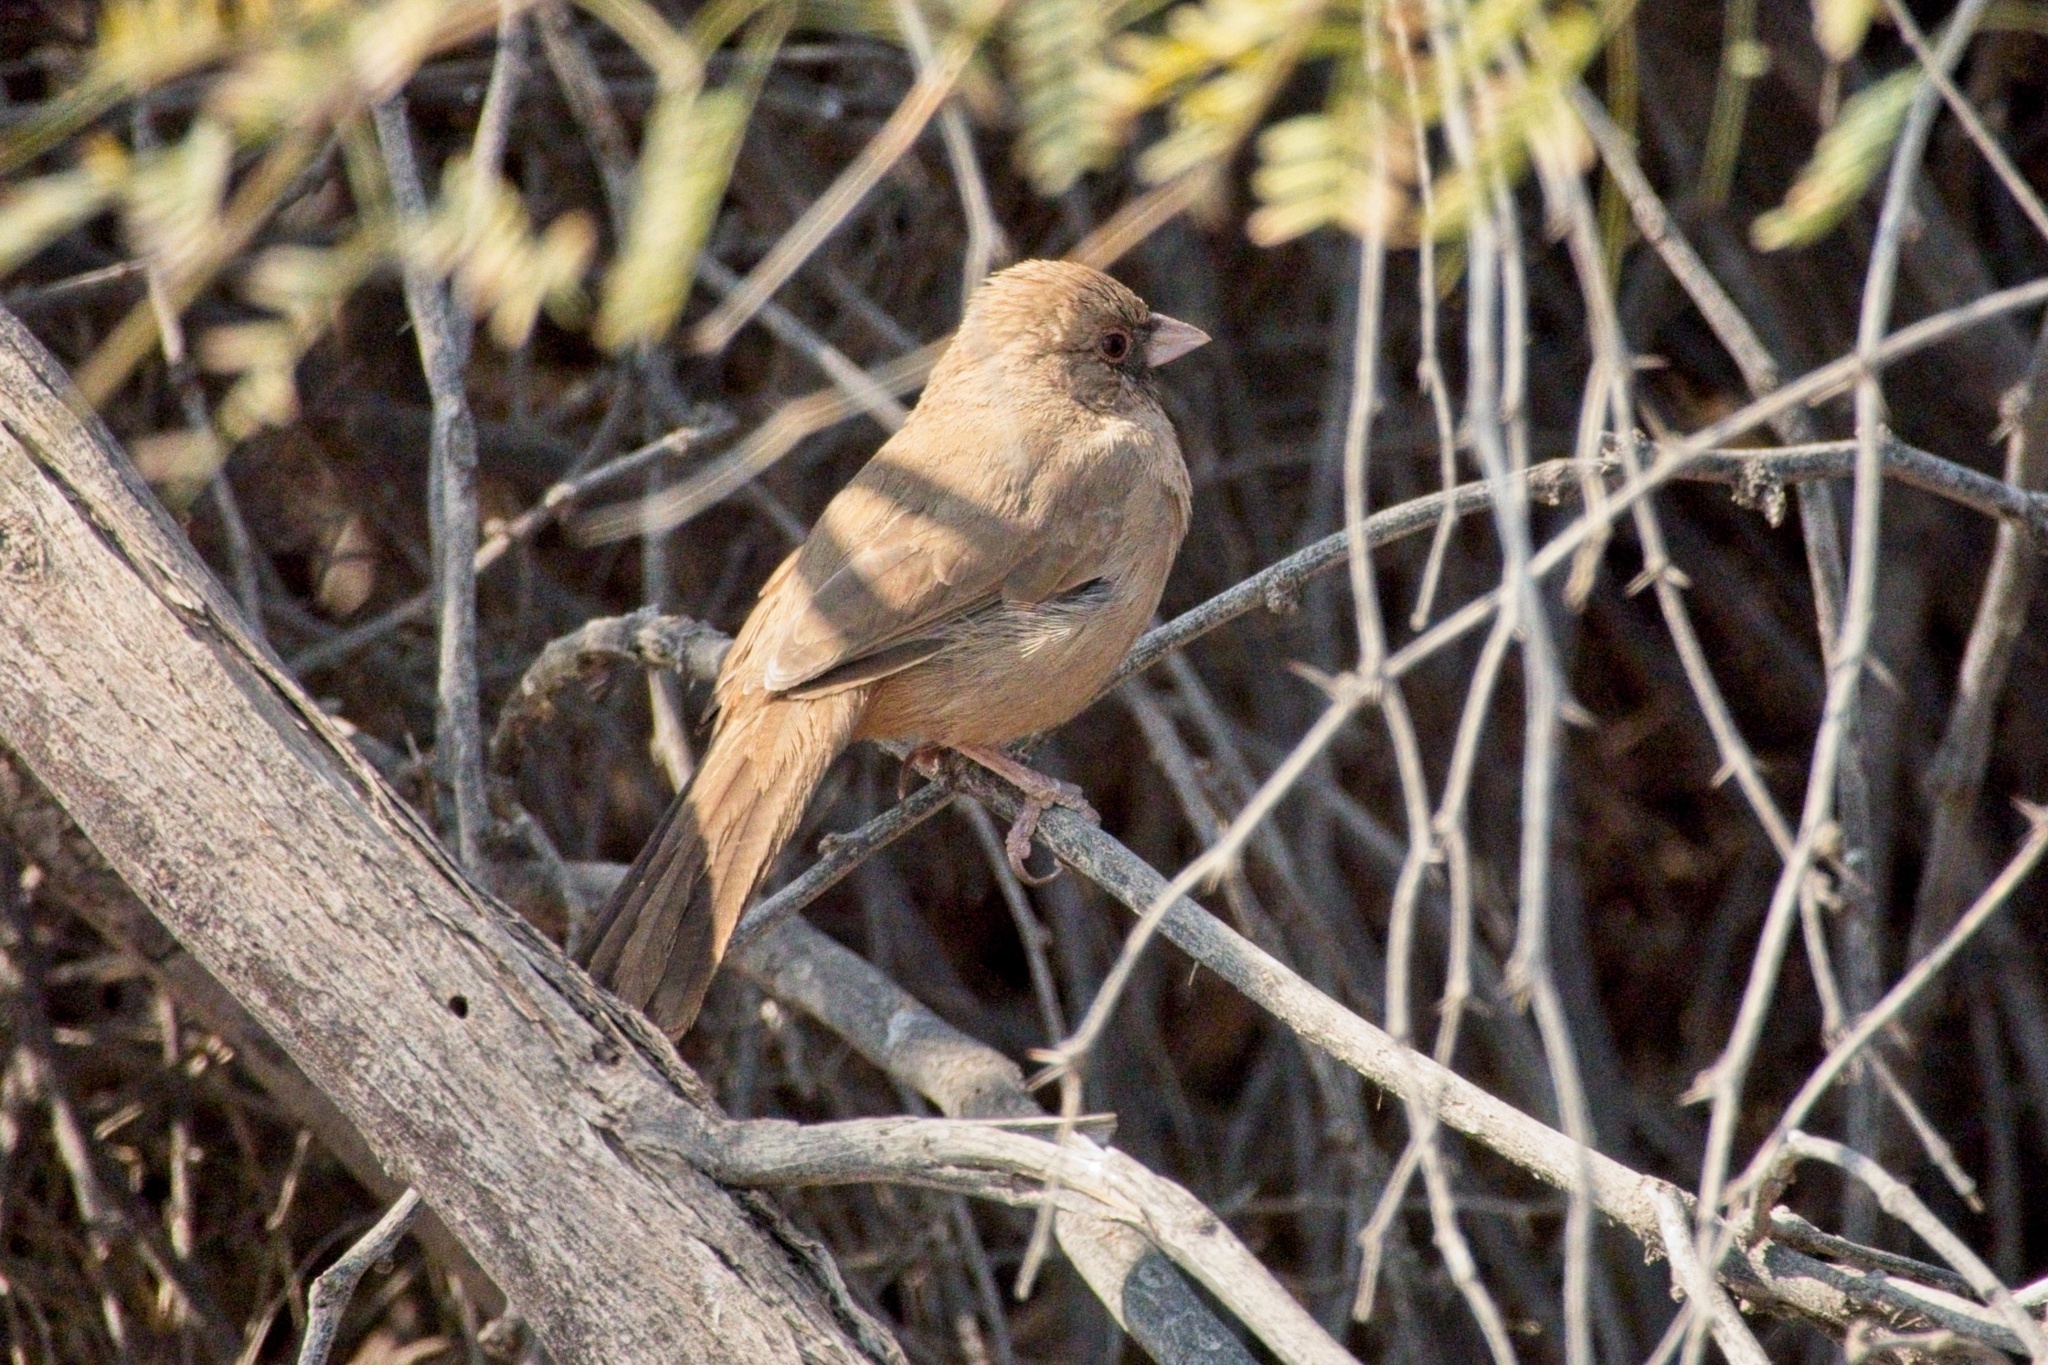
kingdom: Animalia
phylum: Chordata
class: Aves
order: Passeriformes
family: Passerellidae
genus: Melozone
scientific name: Melozone aberti
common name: Abert's towhee
